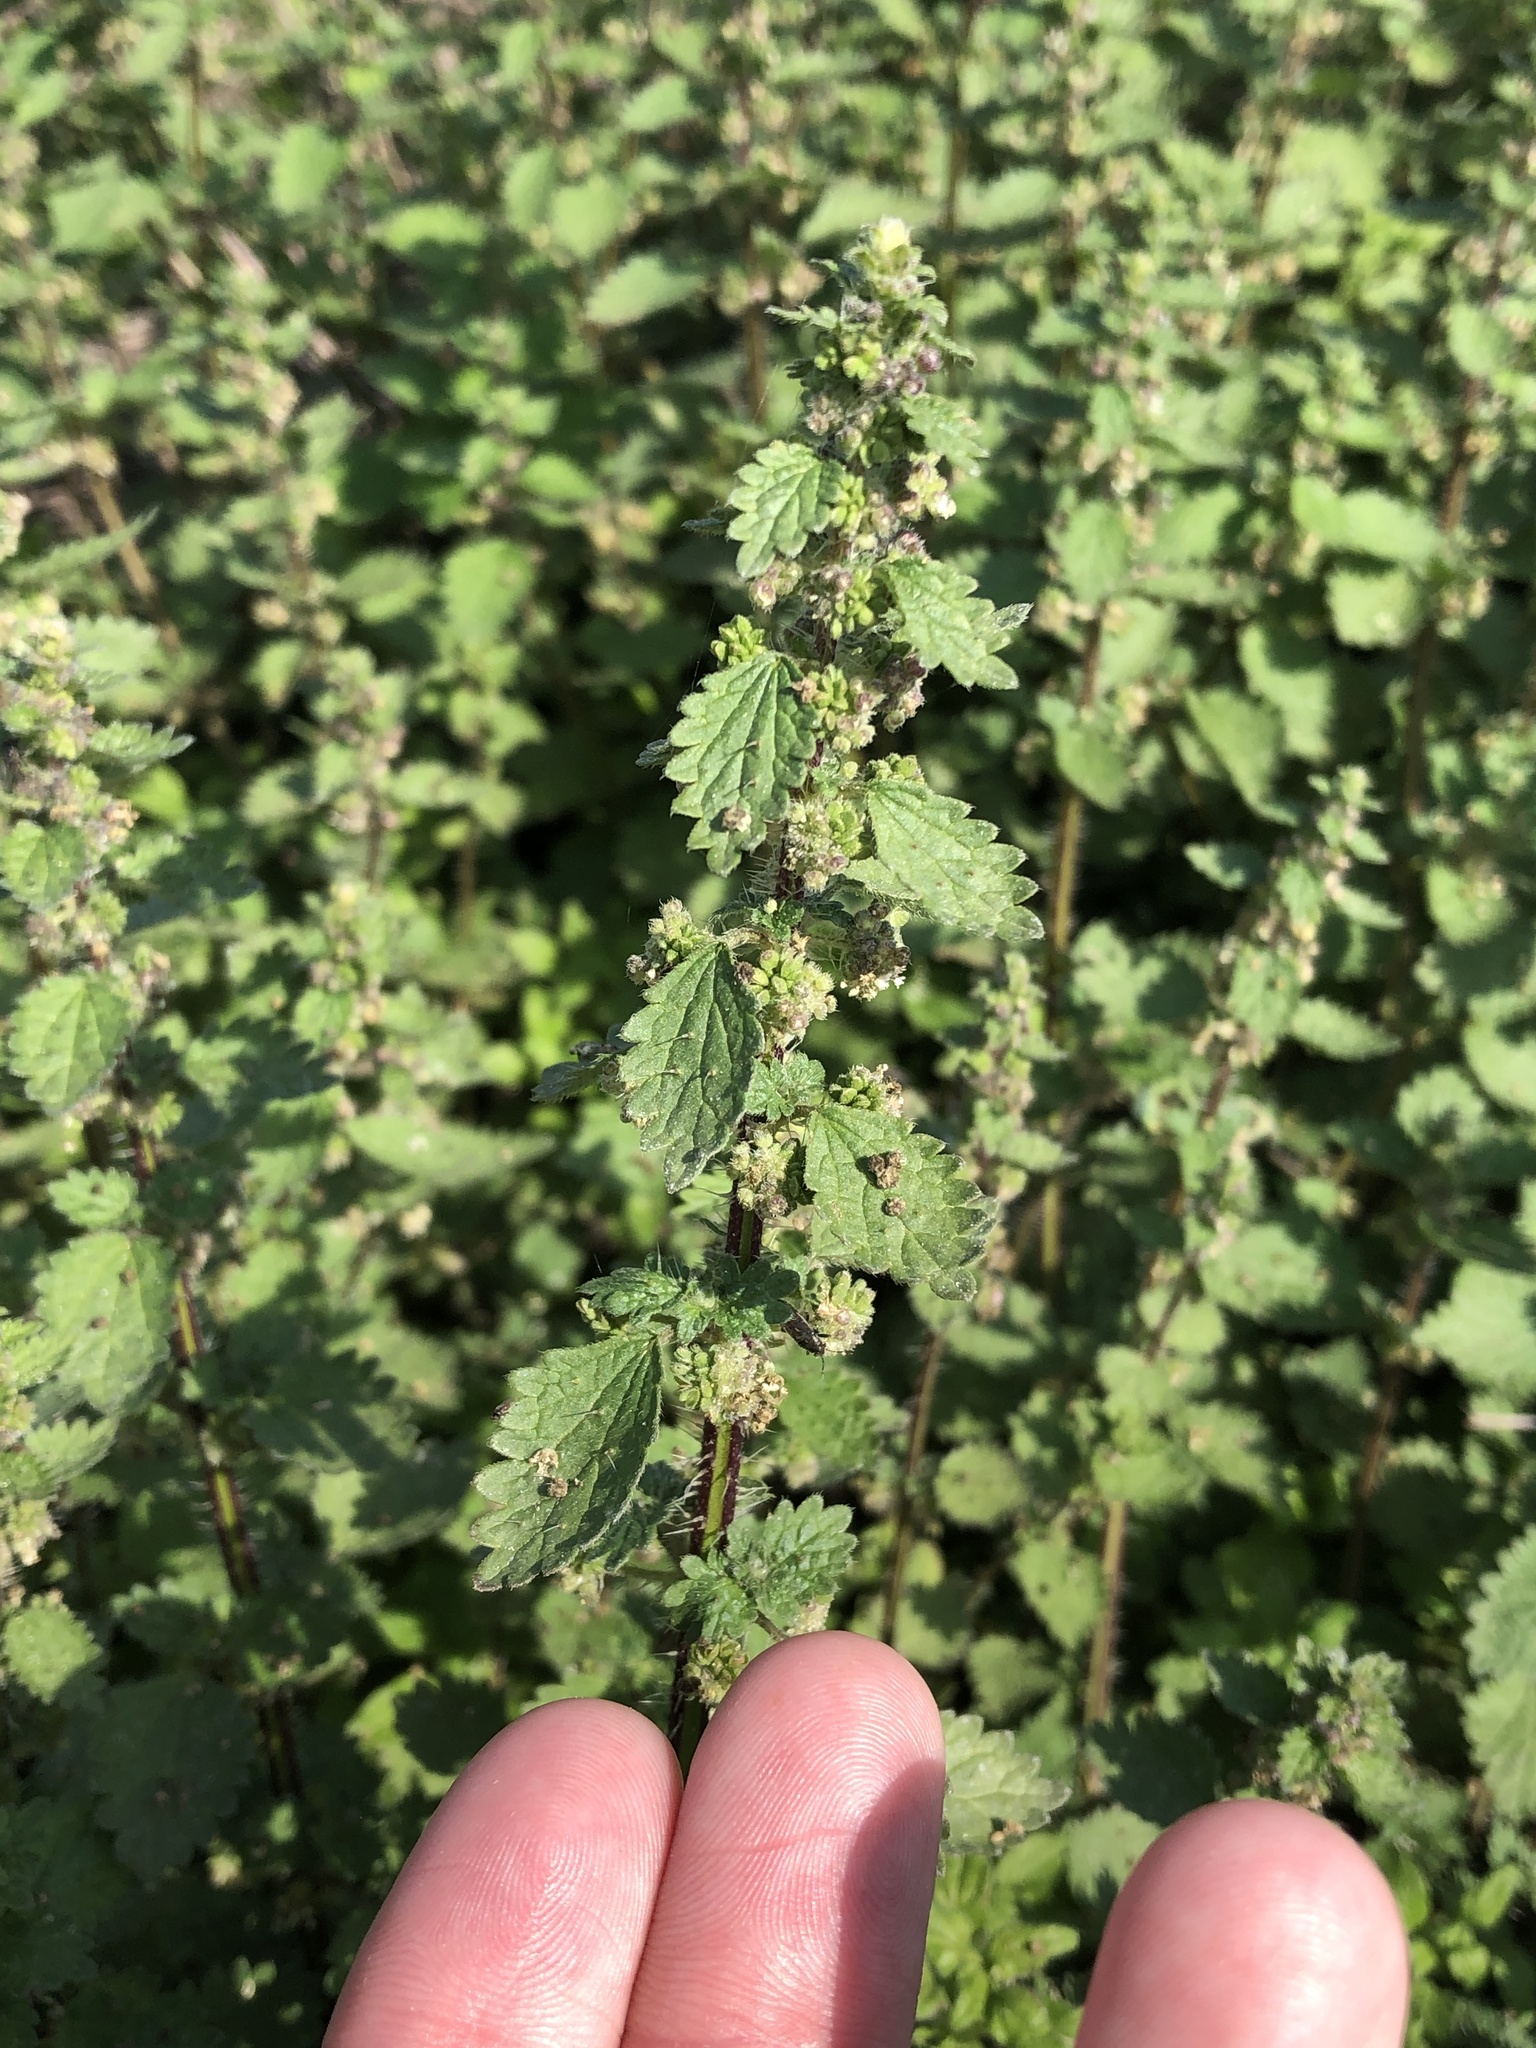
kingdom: Plantae
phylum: Tracheophyta
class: Magnoliopsida
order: Rosales
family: Urticaceae
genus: Urtica
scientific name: Urtica chamaedryoides
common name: Heart-leaf nettle
